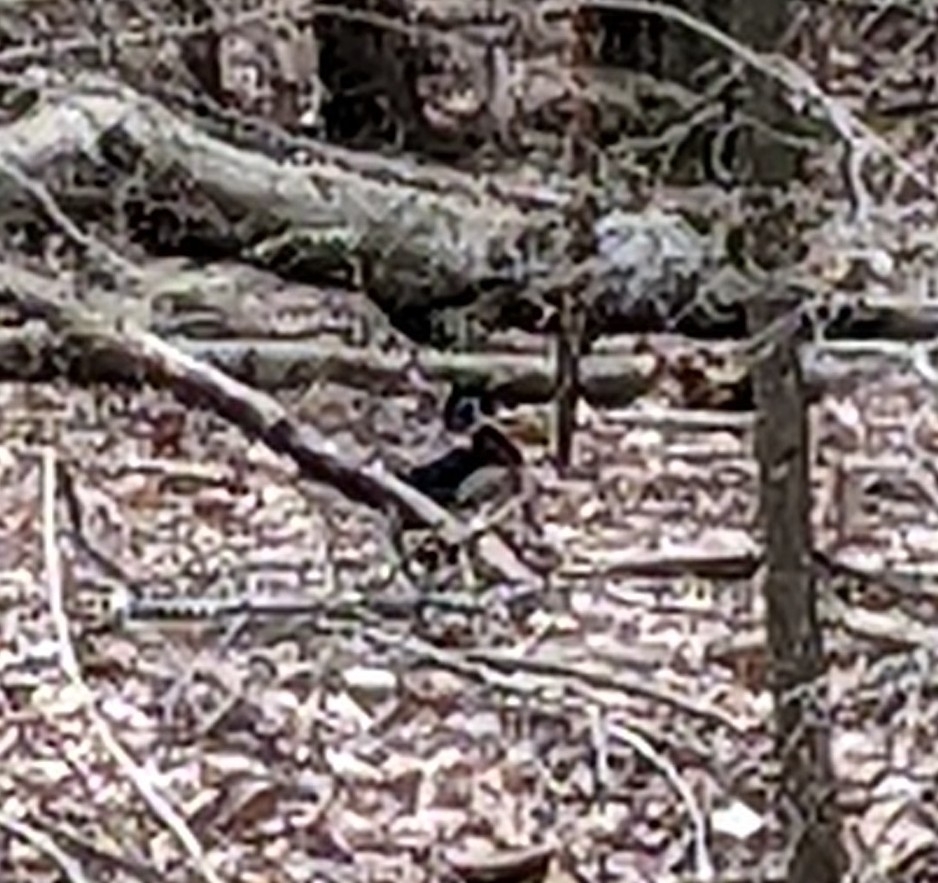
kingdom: Animalia
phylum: Chordata
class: Aves
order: Anseriformes
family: Anatidae
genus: Aix
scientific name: Aix sponsa
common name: Wood duck
